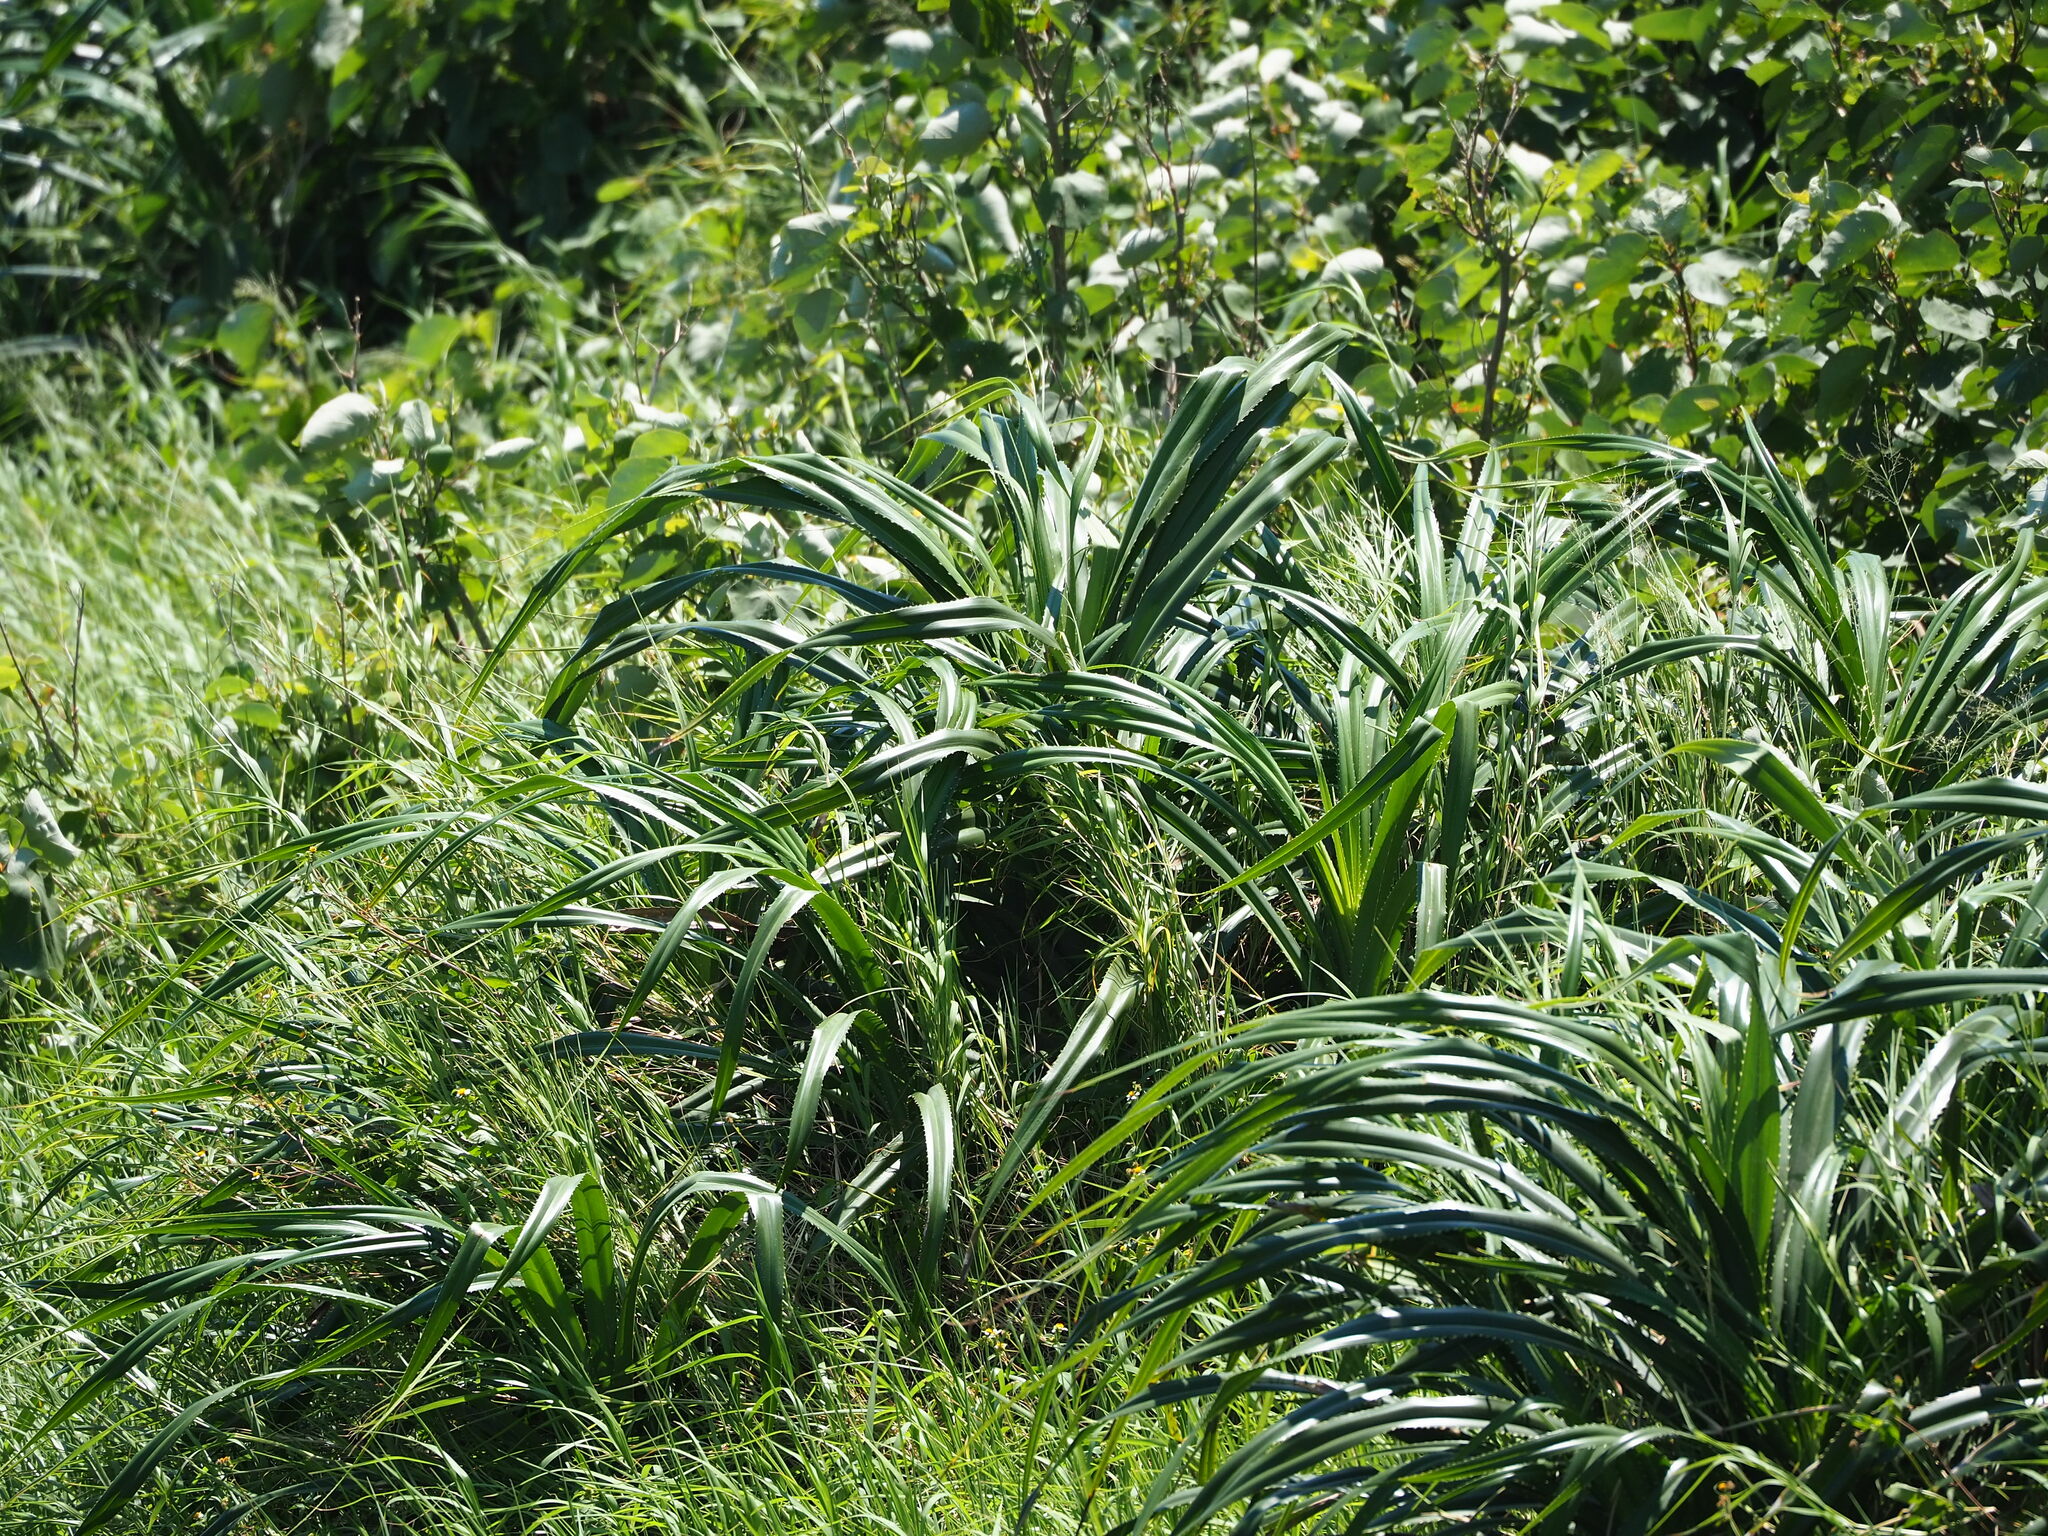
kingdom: Plantae
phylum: Tracheophyta
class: Liliopsida
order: Pandanales
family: Pandanaceae
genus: Pandanus
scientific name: Pandanus odorifer
